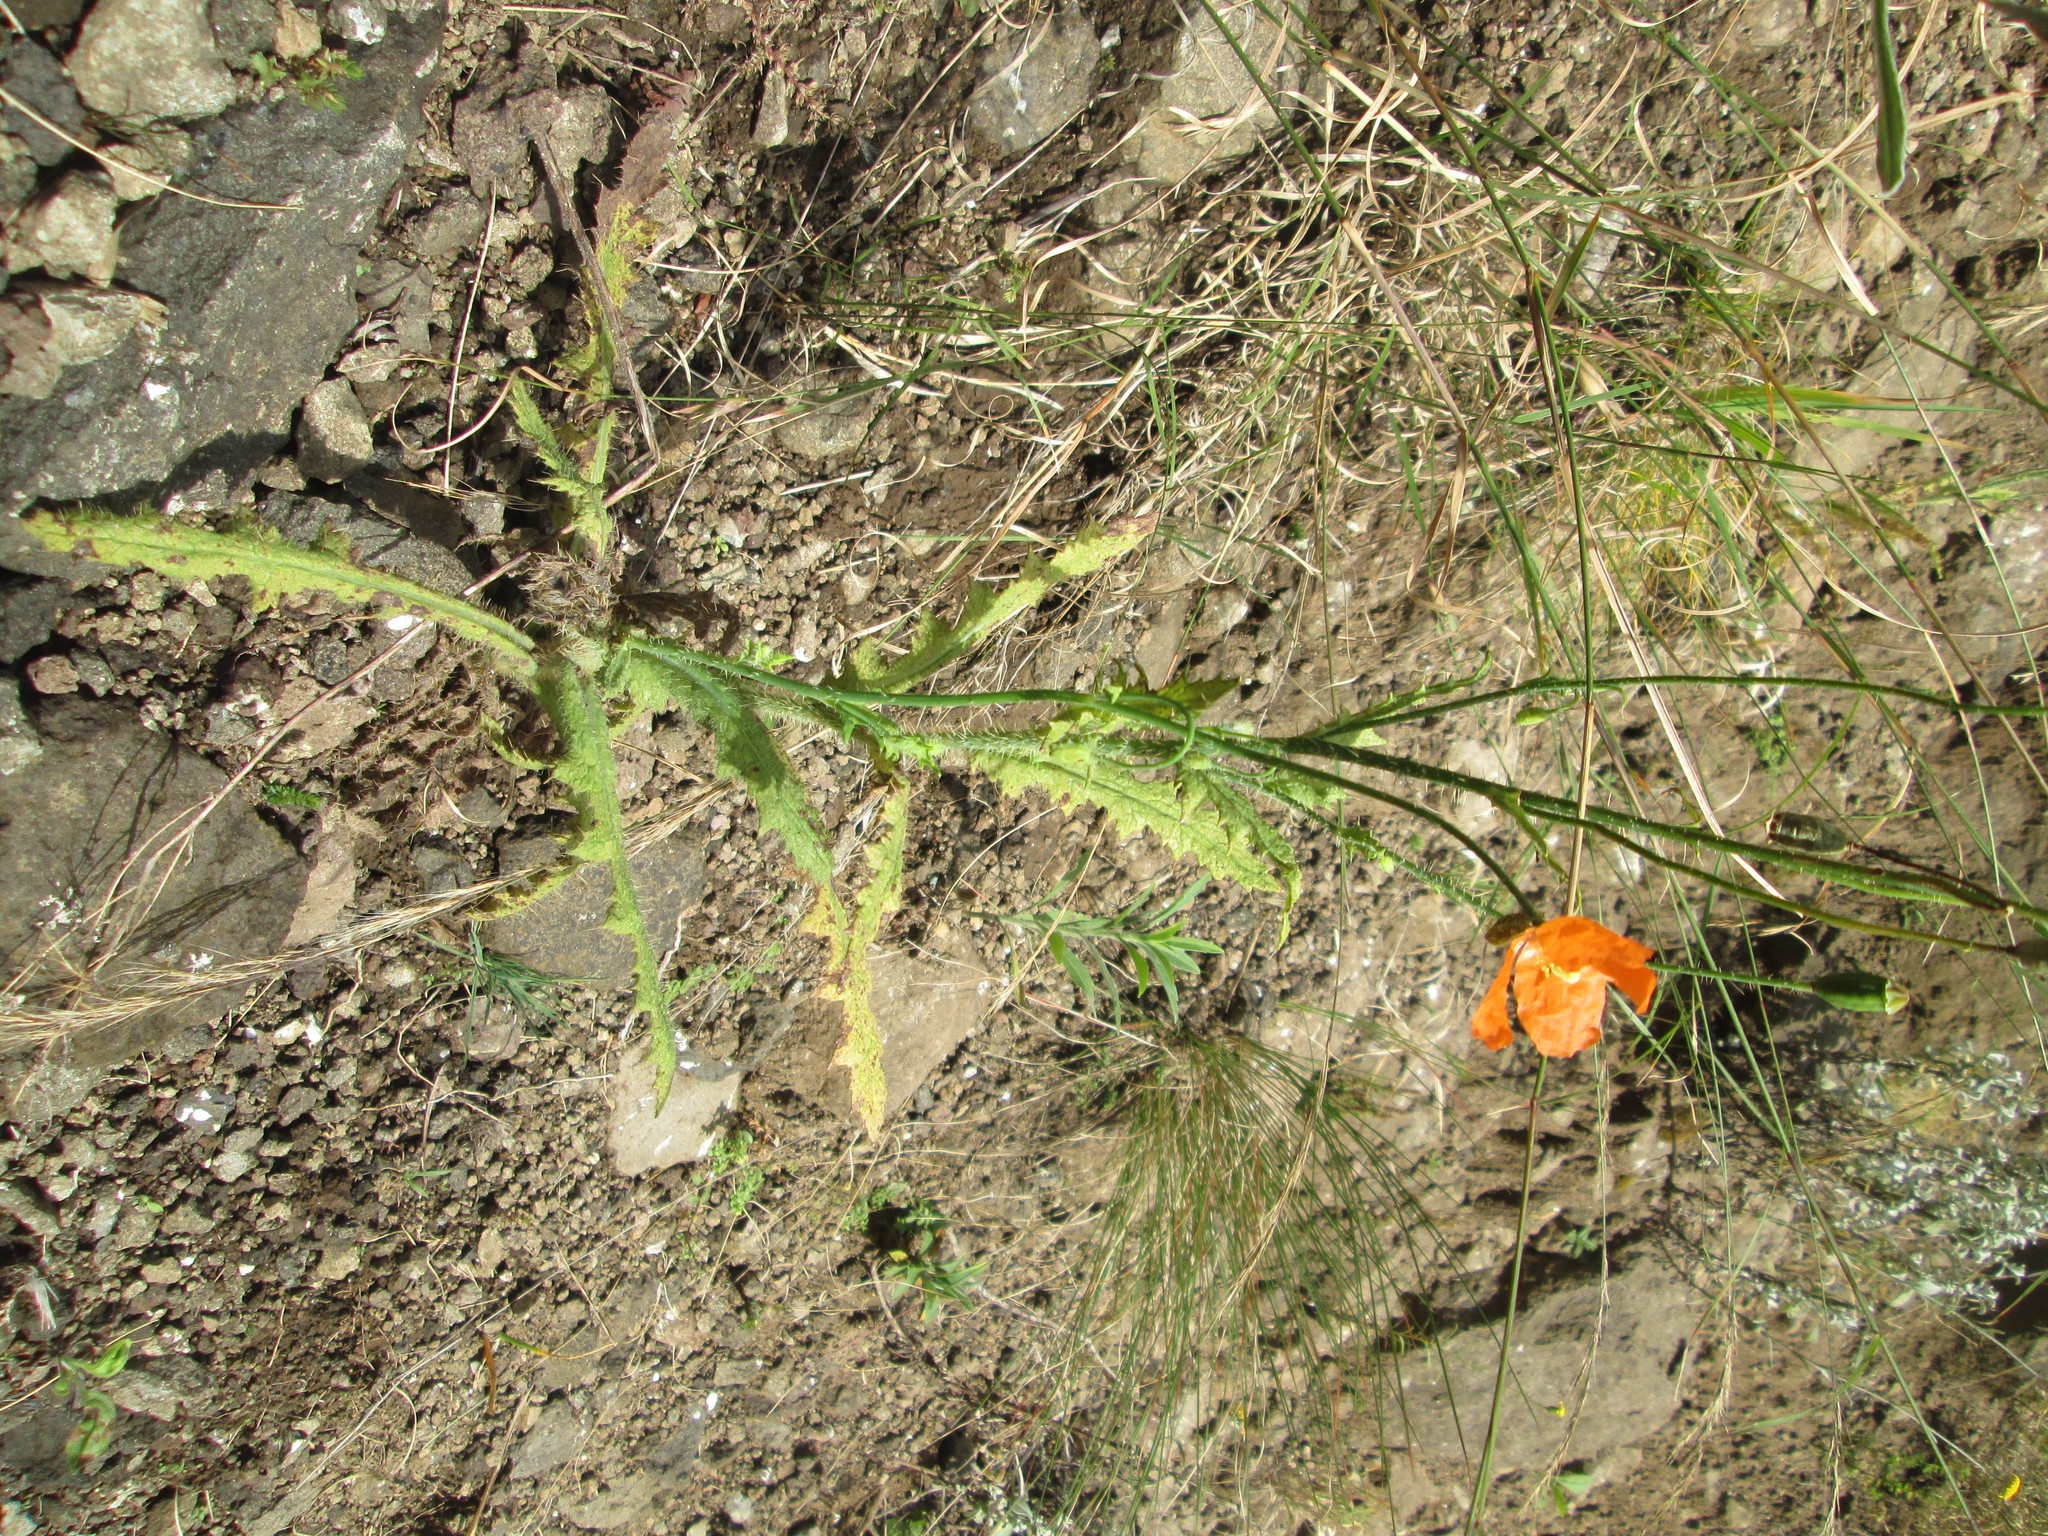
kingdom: Plantae
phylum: Tracheophyta
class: Magnoliopsida
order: Ranunculales
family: Papaveraceae
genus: Papaver
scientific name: Papaver aculeatum
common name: Bristle poppy
